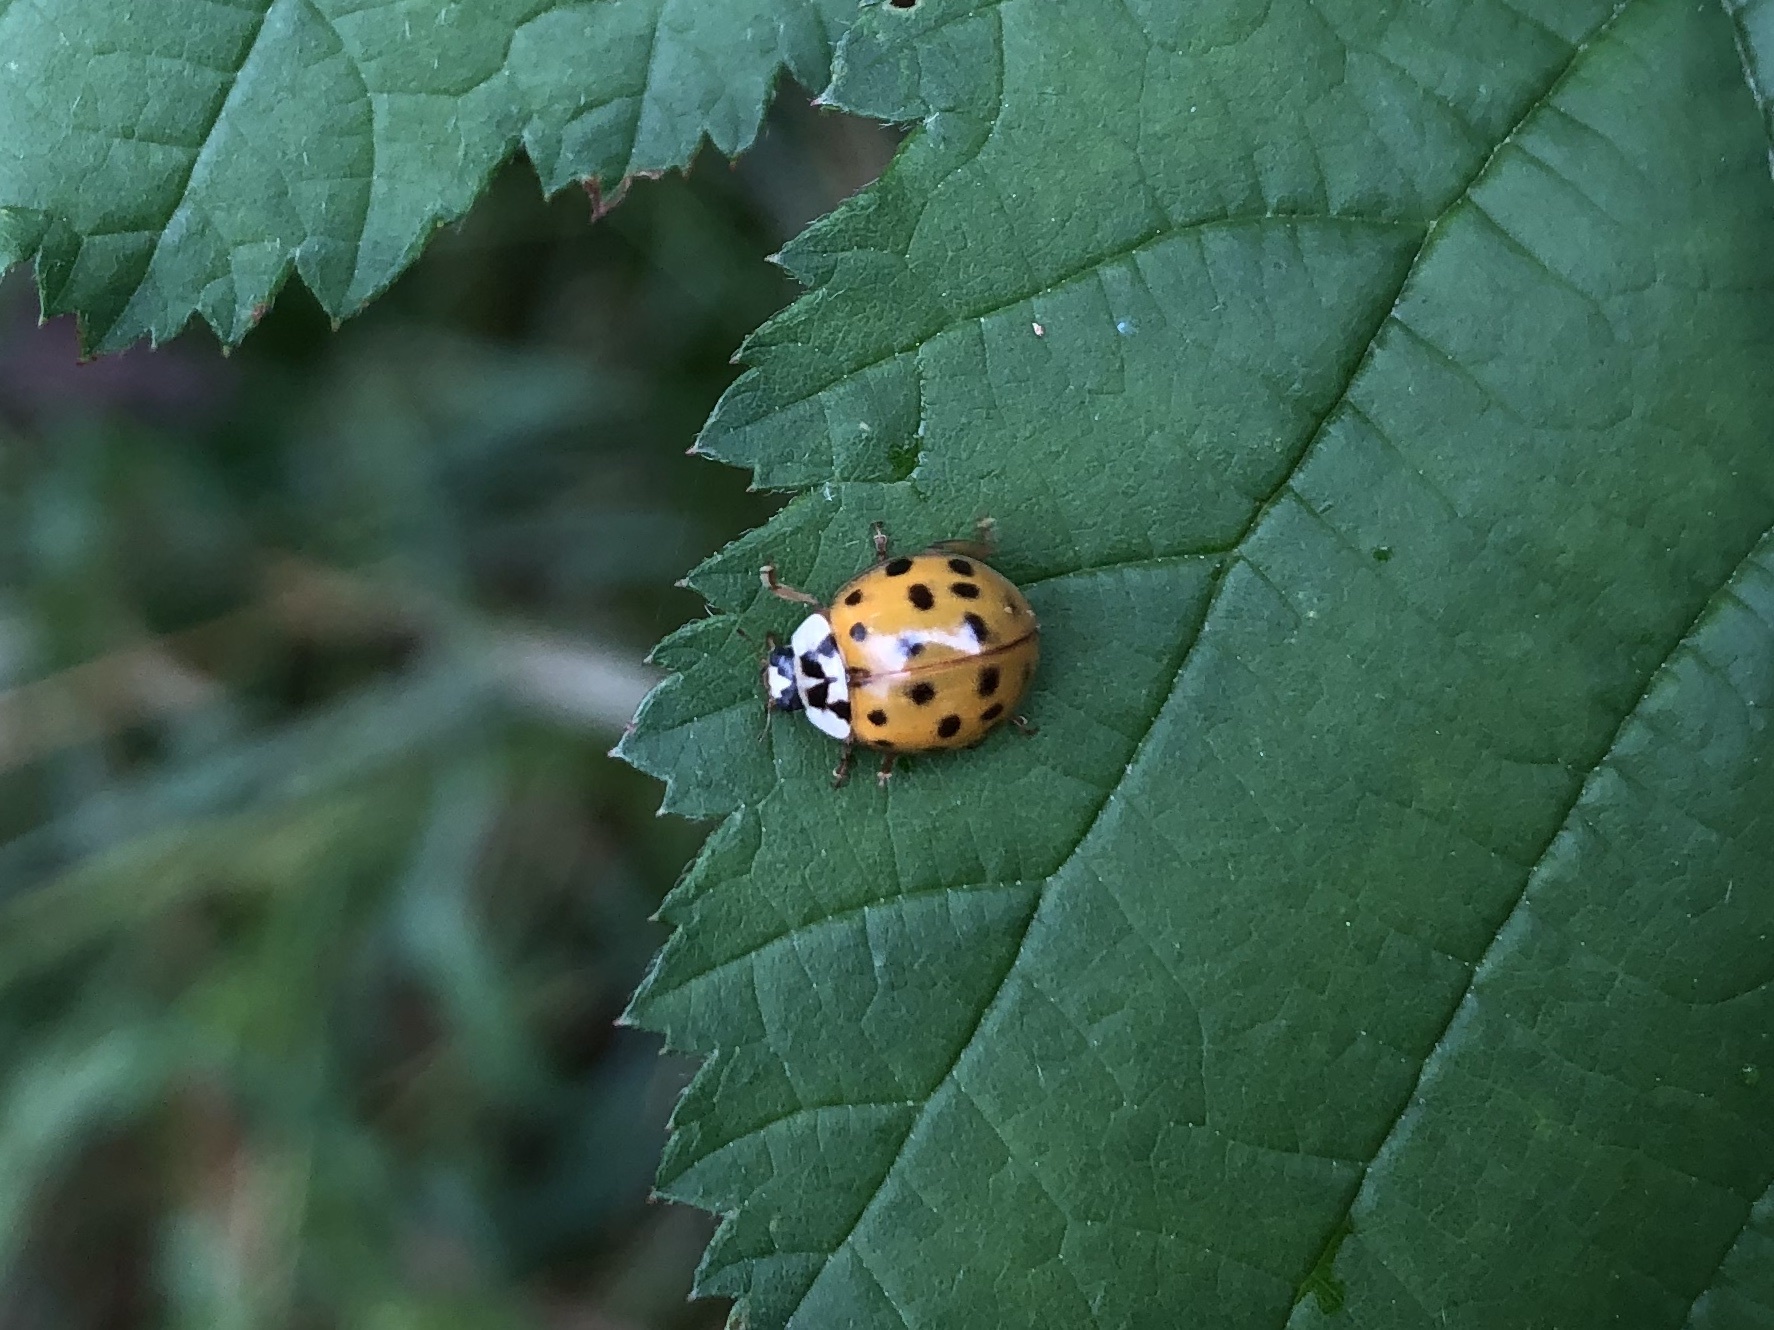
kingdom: Animalia
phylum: Arthropoda
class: Insecta
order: Coleoptera
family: Coccinellidae
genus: Harmonia
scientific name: Harmonia axyridis
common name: Harlequin ladybird
